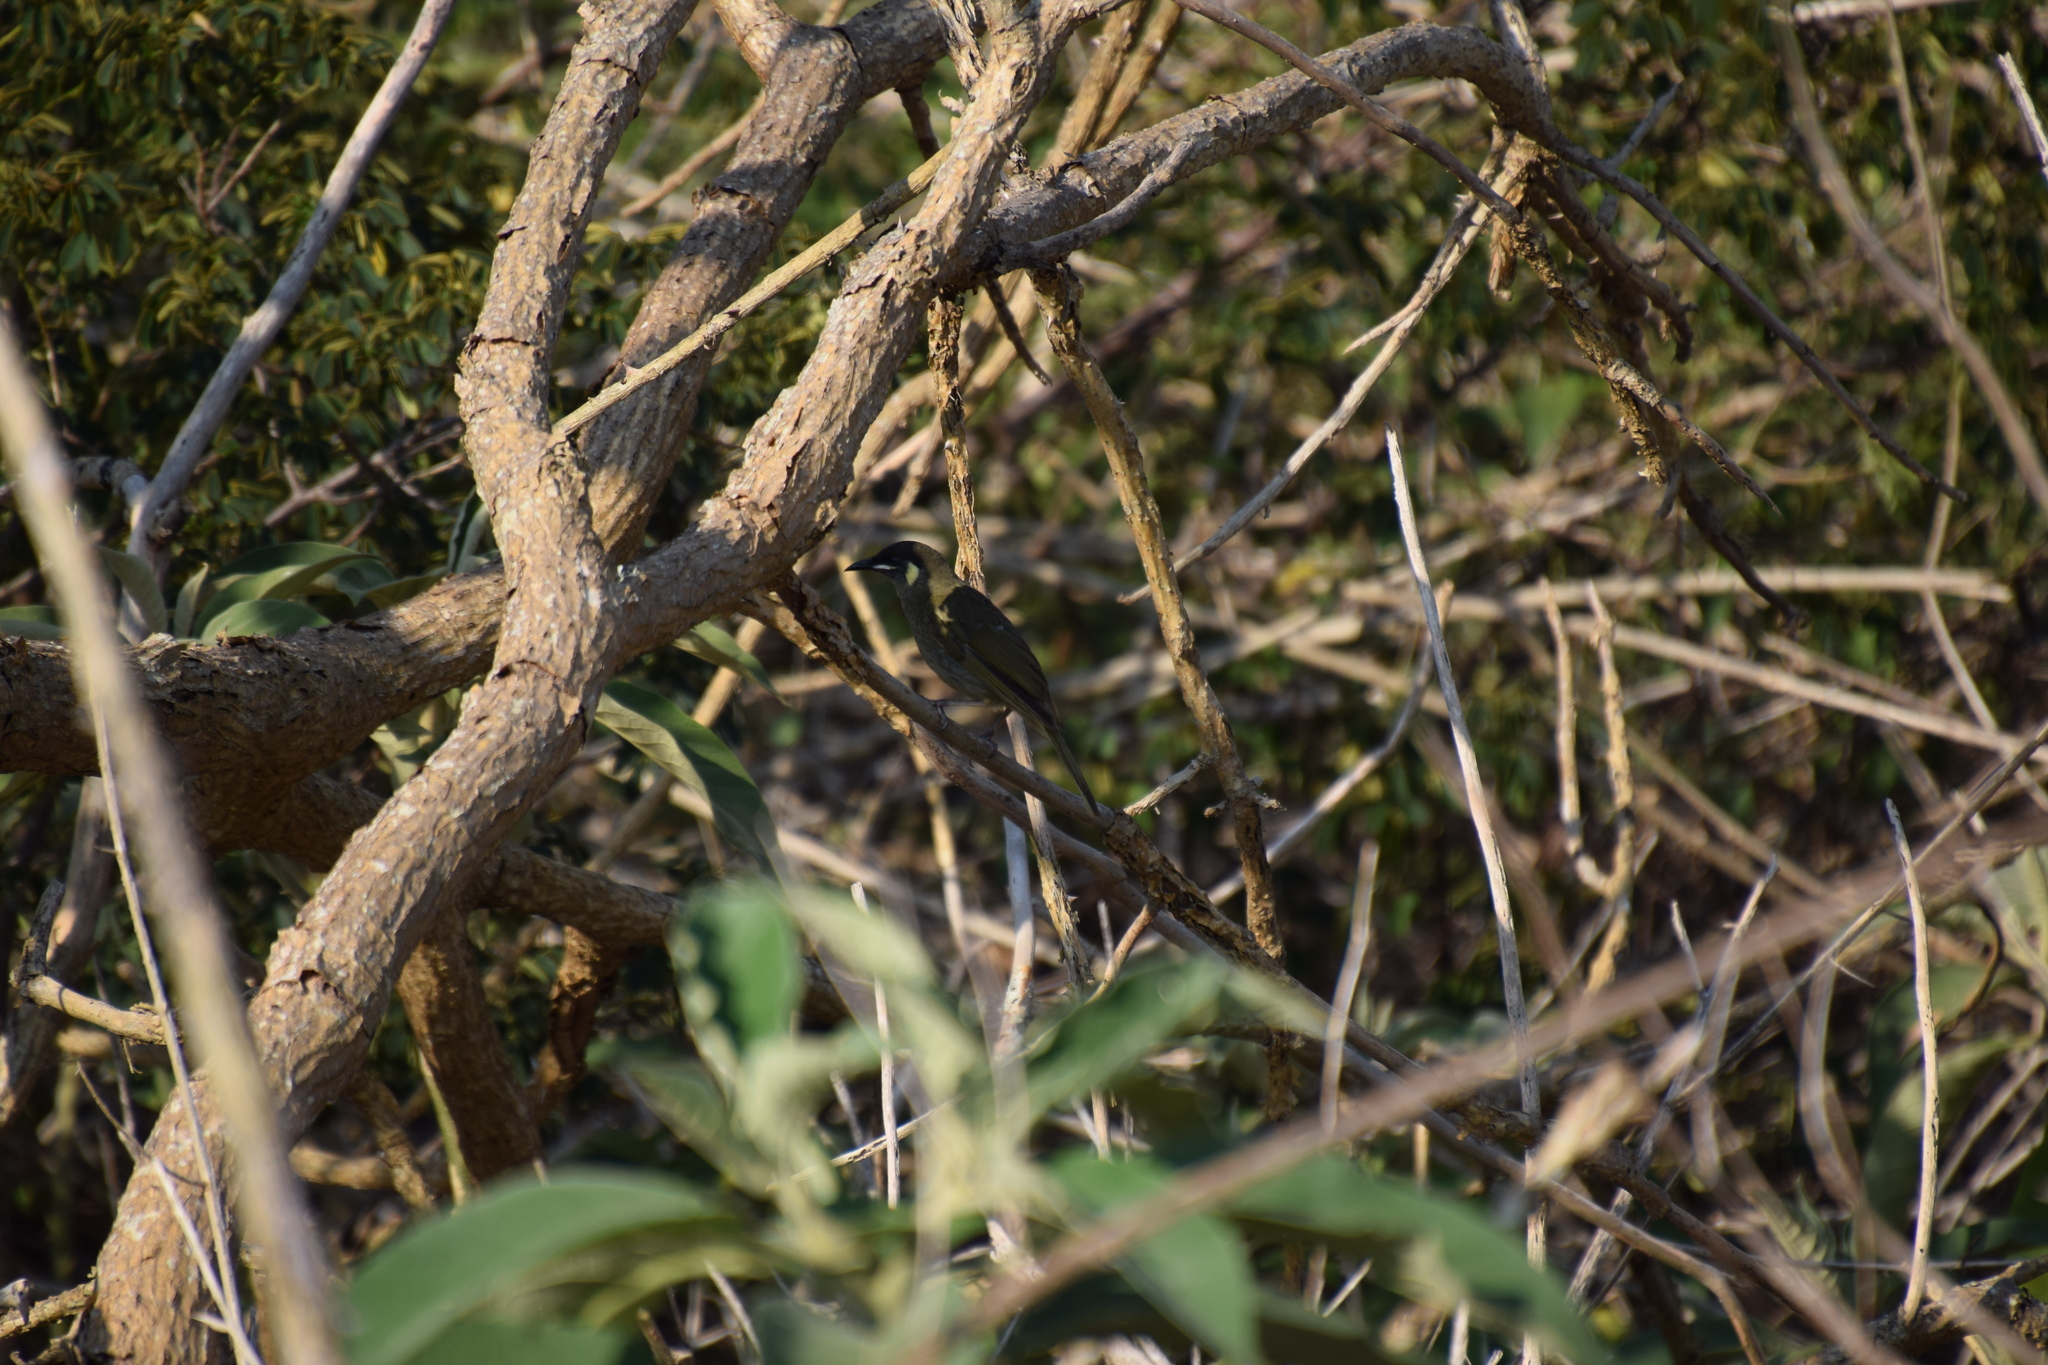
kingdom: Animalia
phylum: Chordata
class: Aves
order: Passeriformes
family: Meliphagidae
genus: Meliphaga
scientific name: Meliphaga lewinii
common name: Lewin's honeyeater
